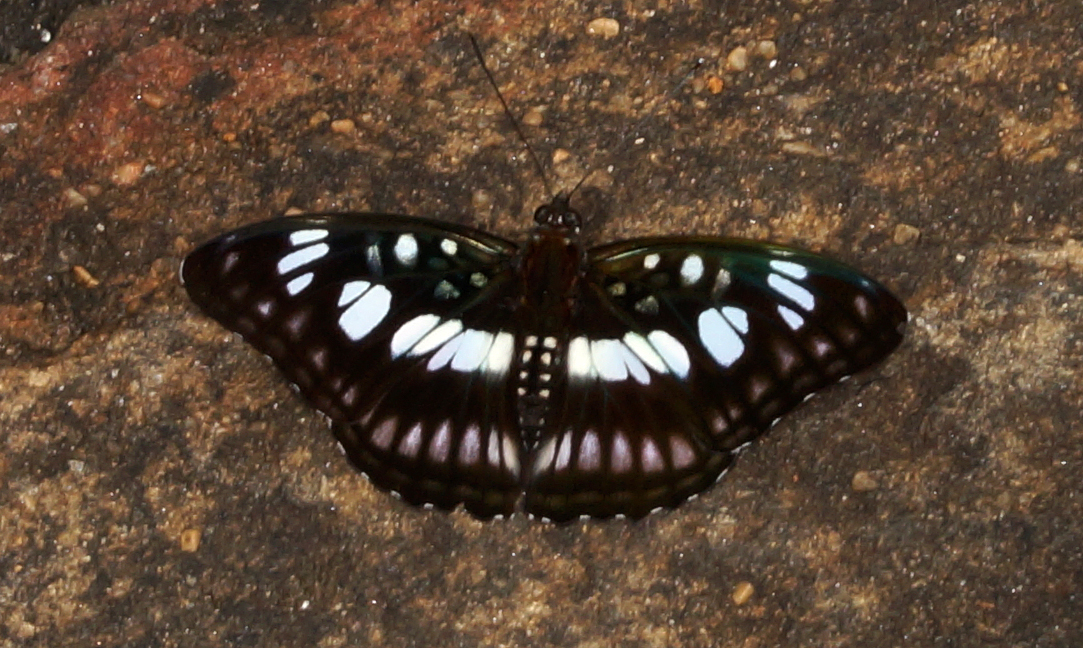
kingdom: Animalia
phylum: Arthropoda
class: Insecta
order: Lepidoptera
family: Nymphalidae
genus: Parathyma
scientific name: Parathyma ranga
